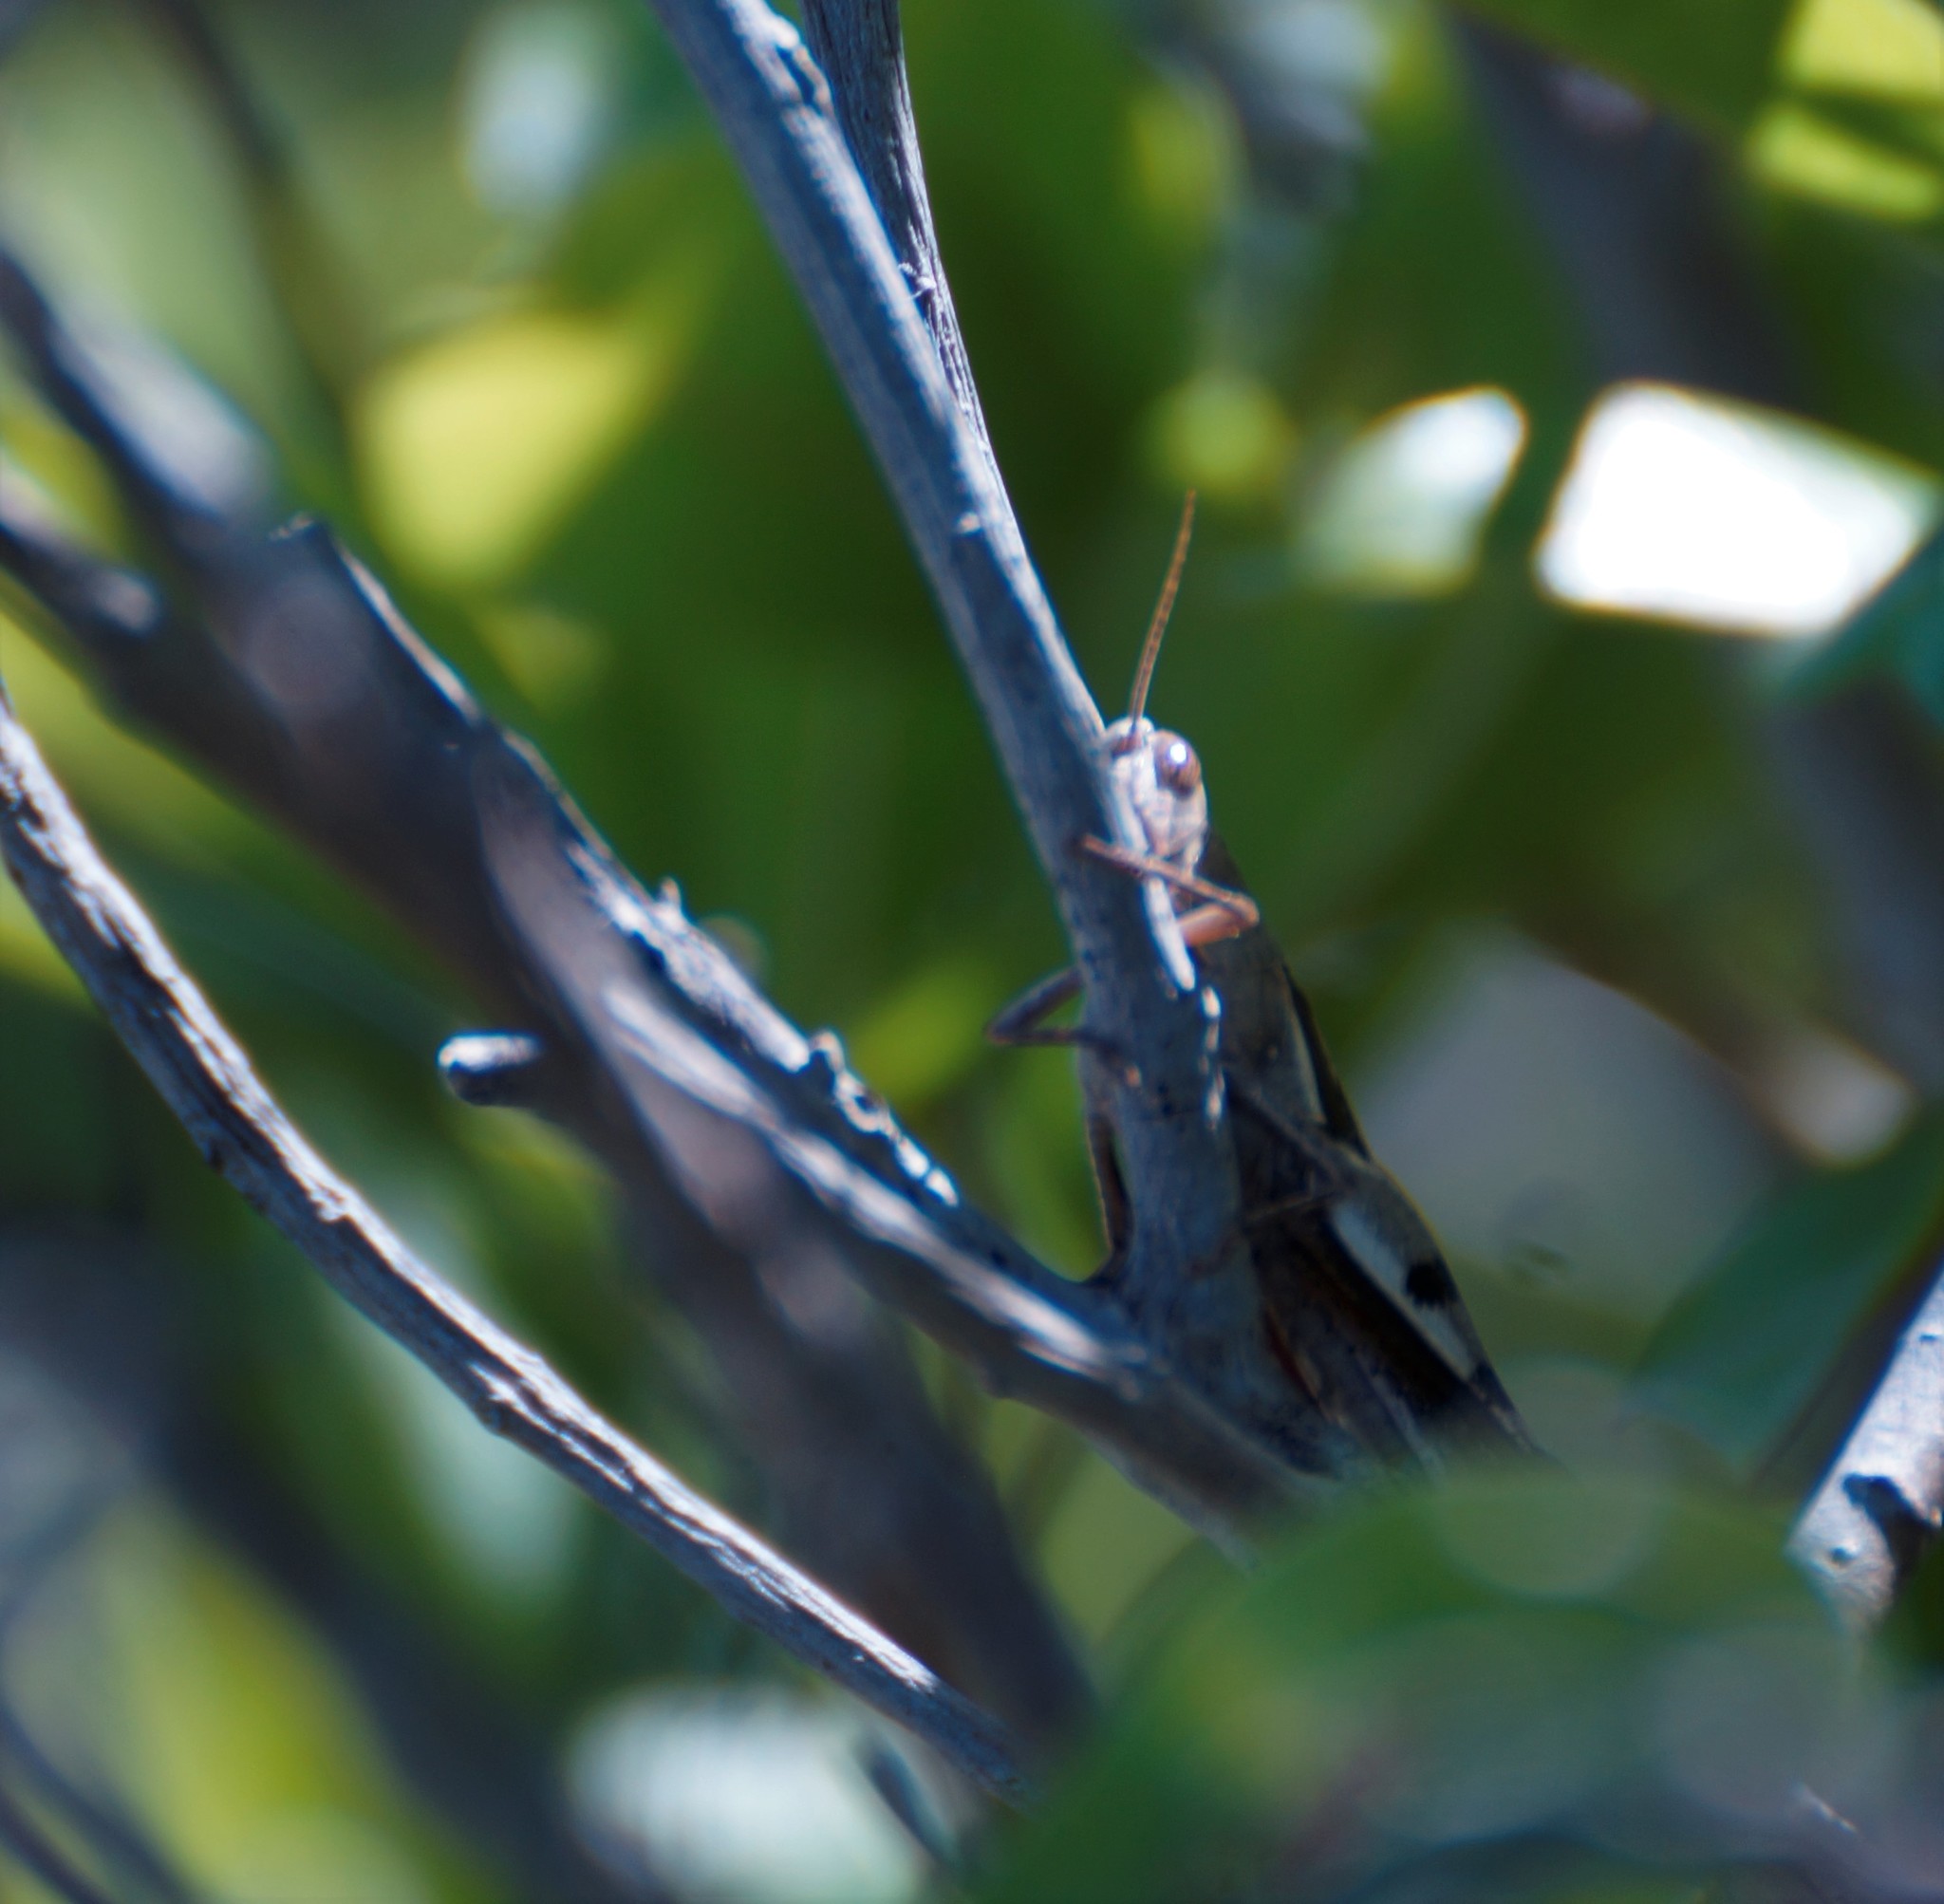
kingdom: Animalia
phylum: Arthropoda
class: Insecta
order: Orthoptera
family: Acrididae
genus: Stenocatantops
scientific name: Stenocatantops angustifrons
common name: Common tropical sharptail
